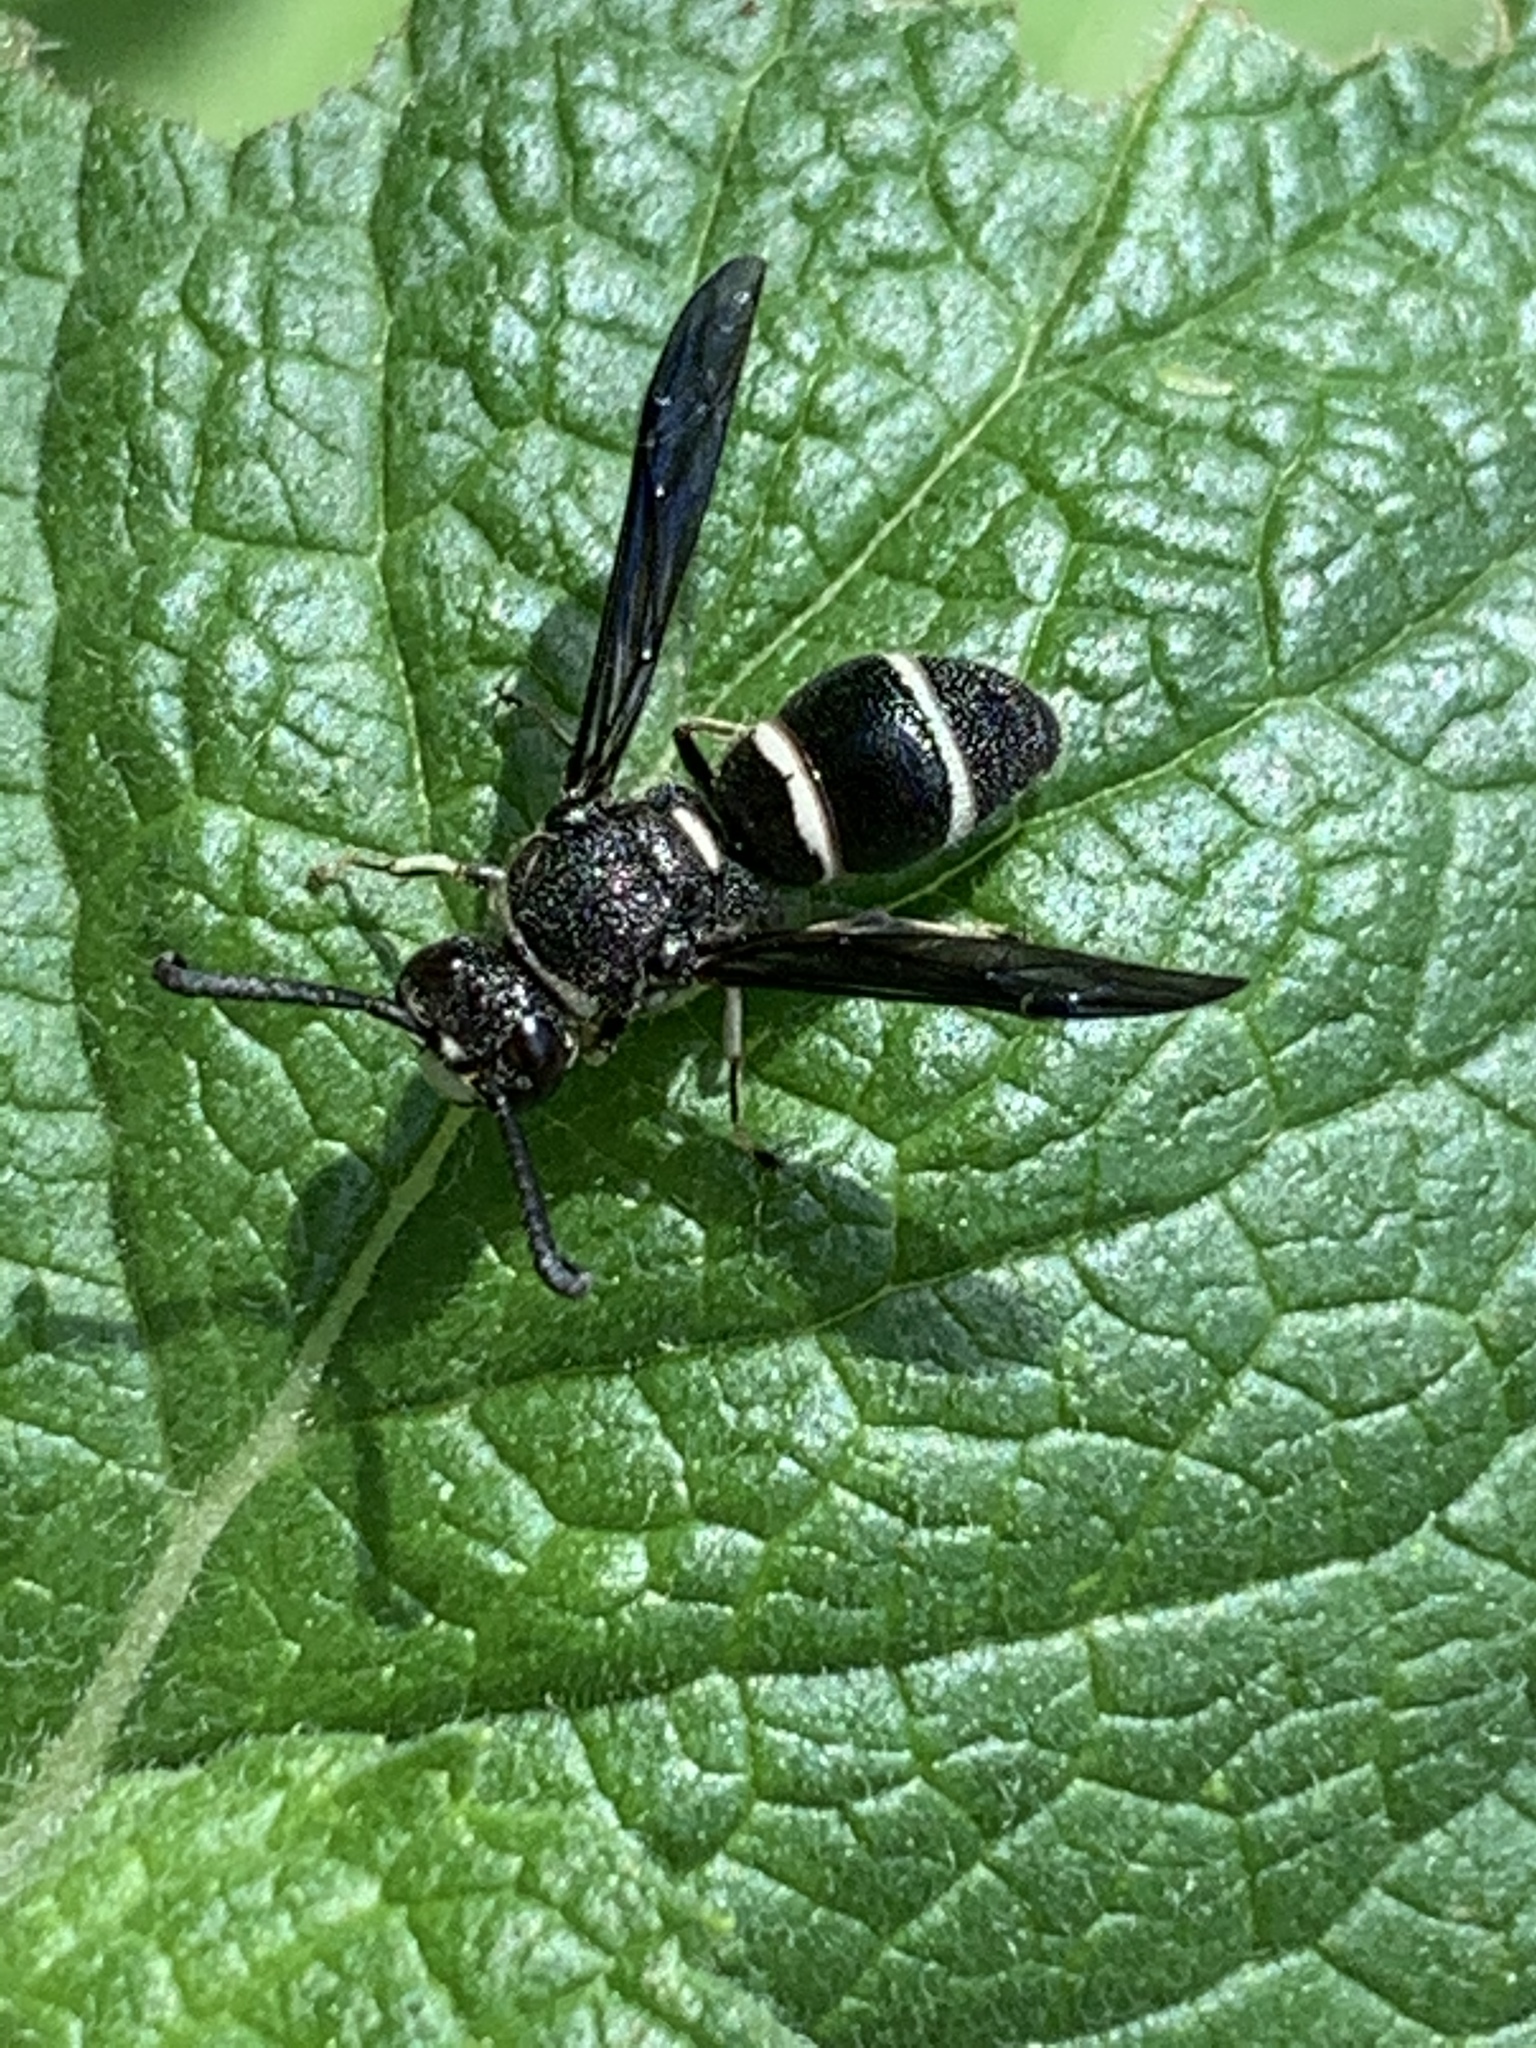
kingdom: Animalia
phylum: Arthropoda
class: Insecta
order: Hymenoptera
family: Eumenidae
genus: Euodynerus
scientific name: Euodynerus schwarzi
